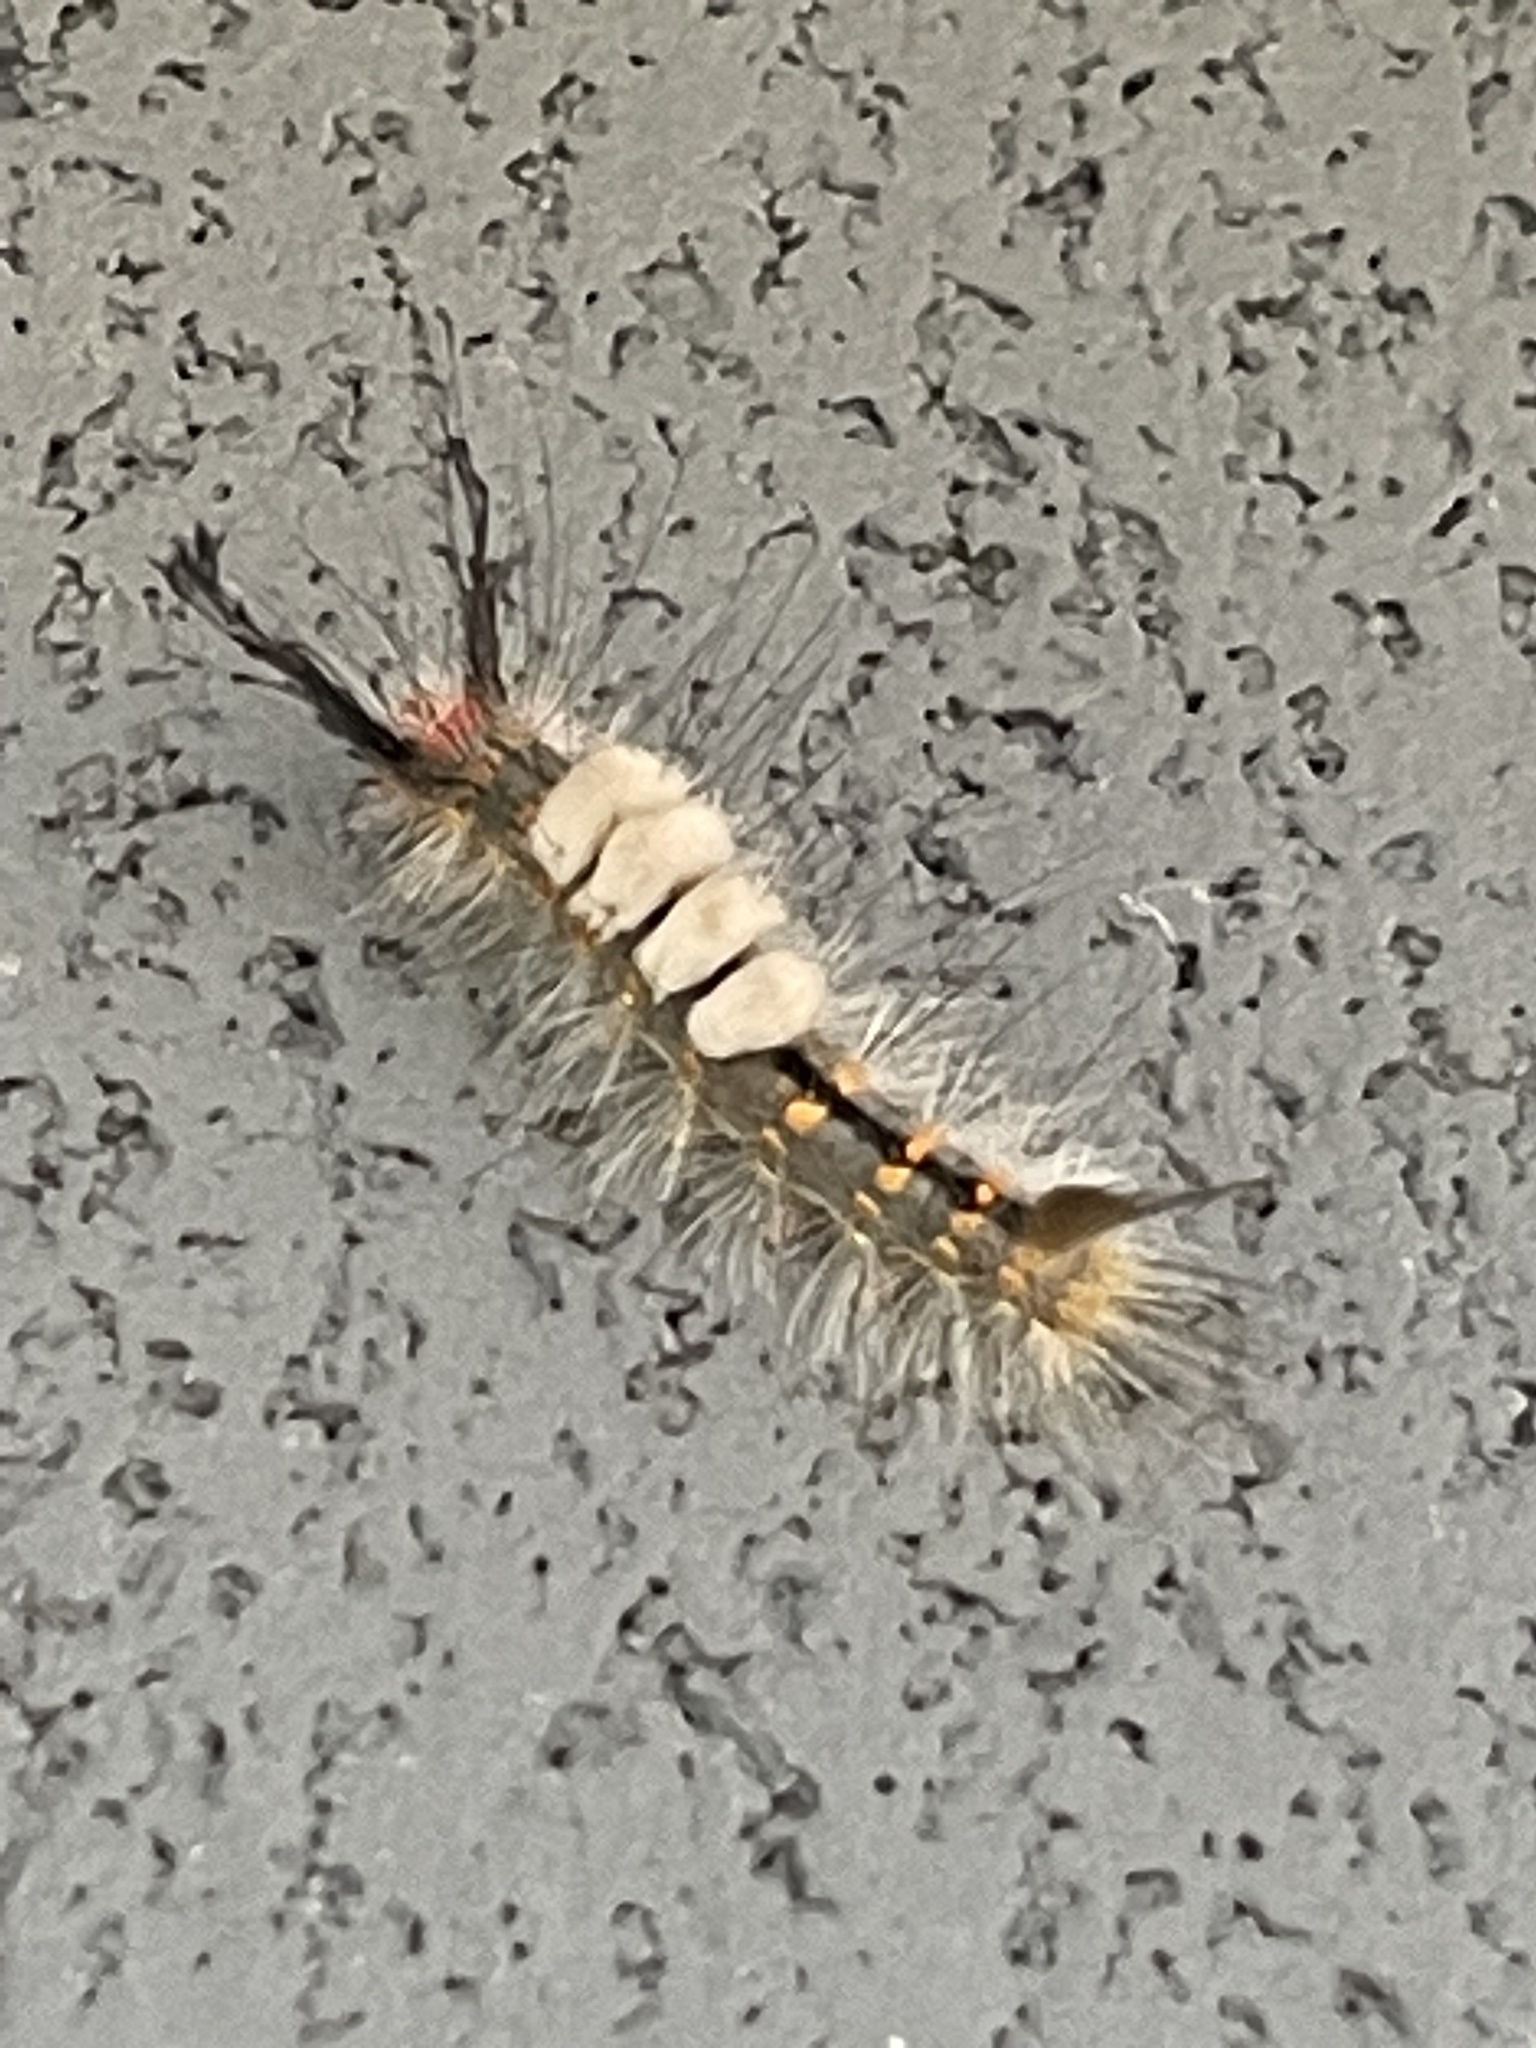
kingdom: Animalia
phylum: Arthropoda
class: Insecta
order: Lepidoptera
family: Erebidae
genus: Orgyia
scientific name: Orgyia detrita
